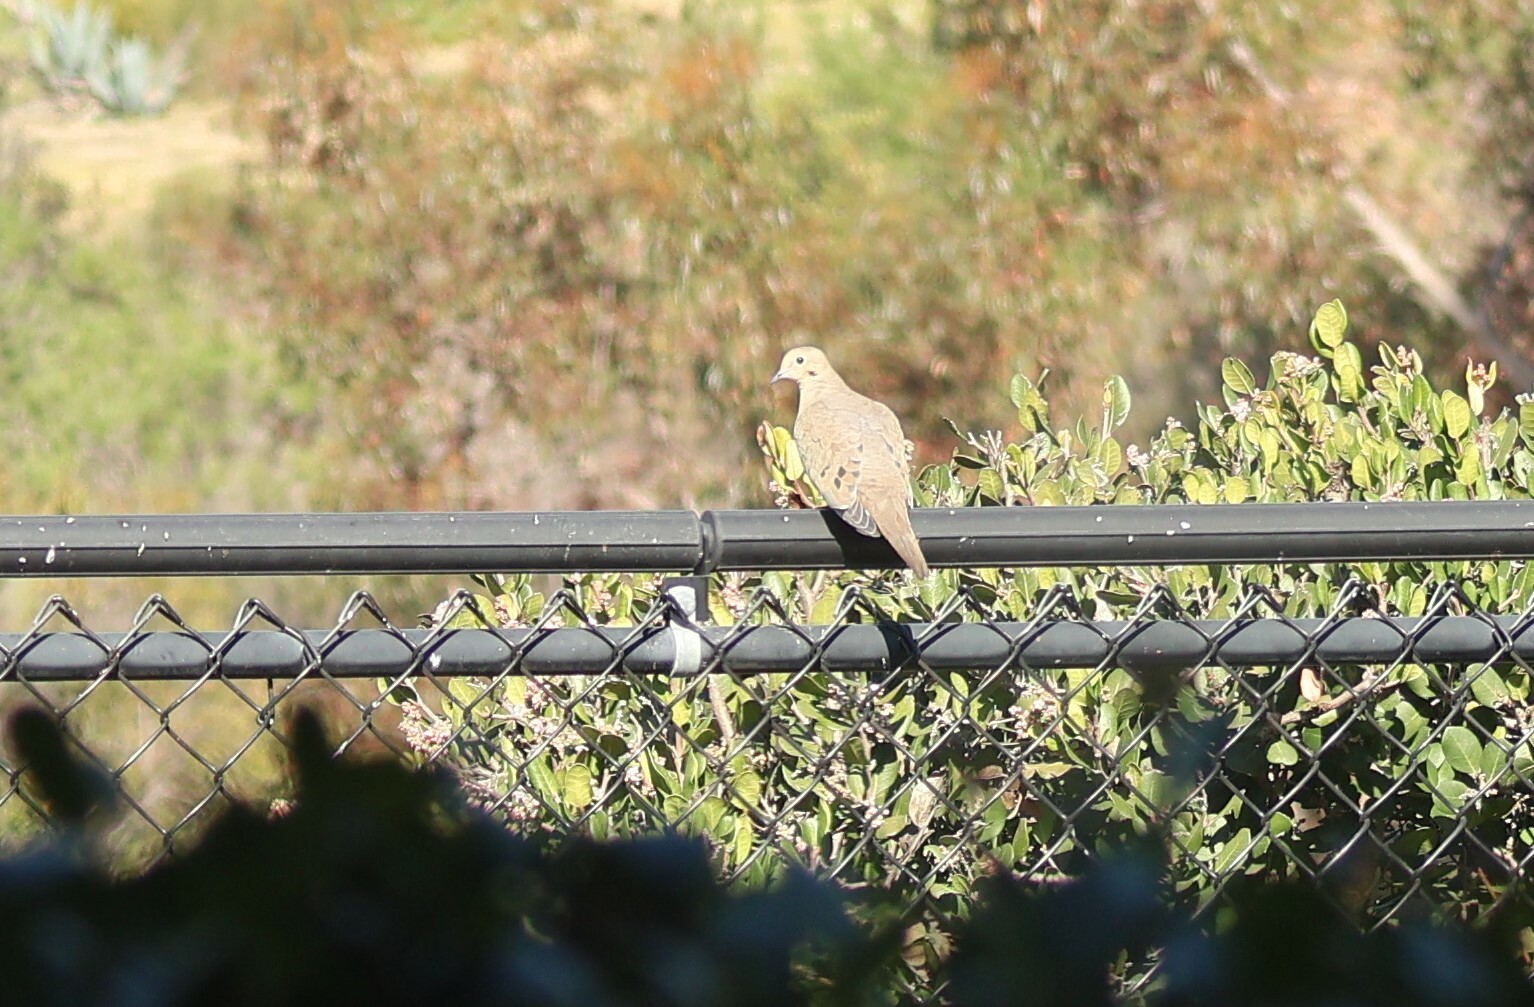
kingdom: Animalia
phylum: Chordata
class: Aves
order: Columbiformes
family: Columbidae
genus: Zenaida
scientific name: Zenaida macroura
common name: Mourning dove
